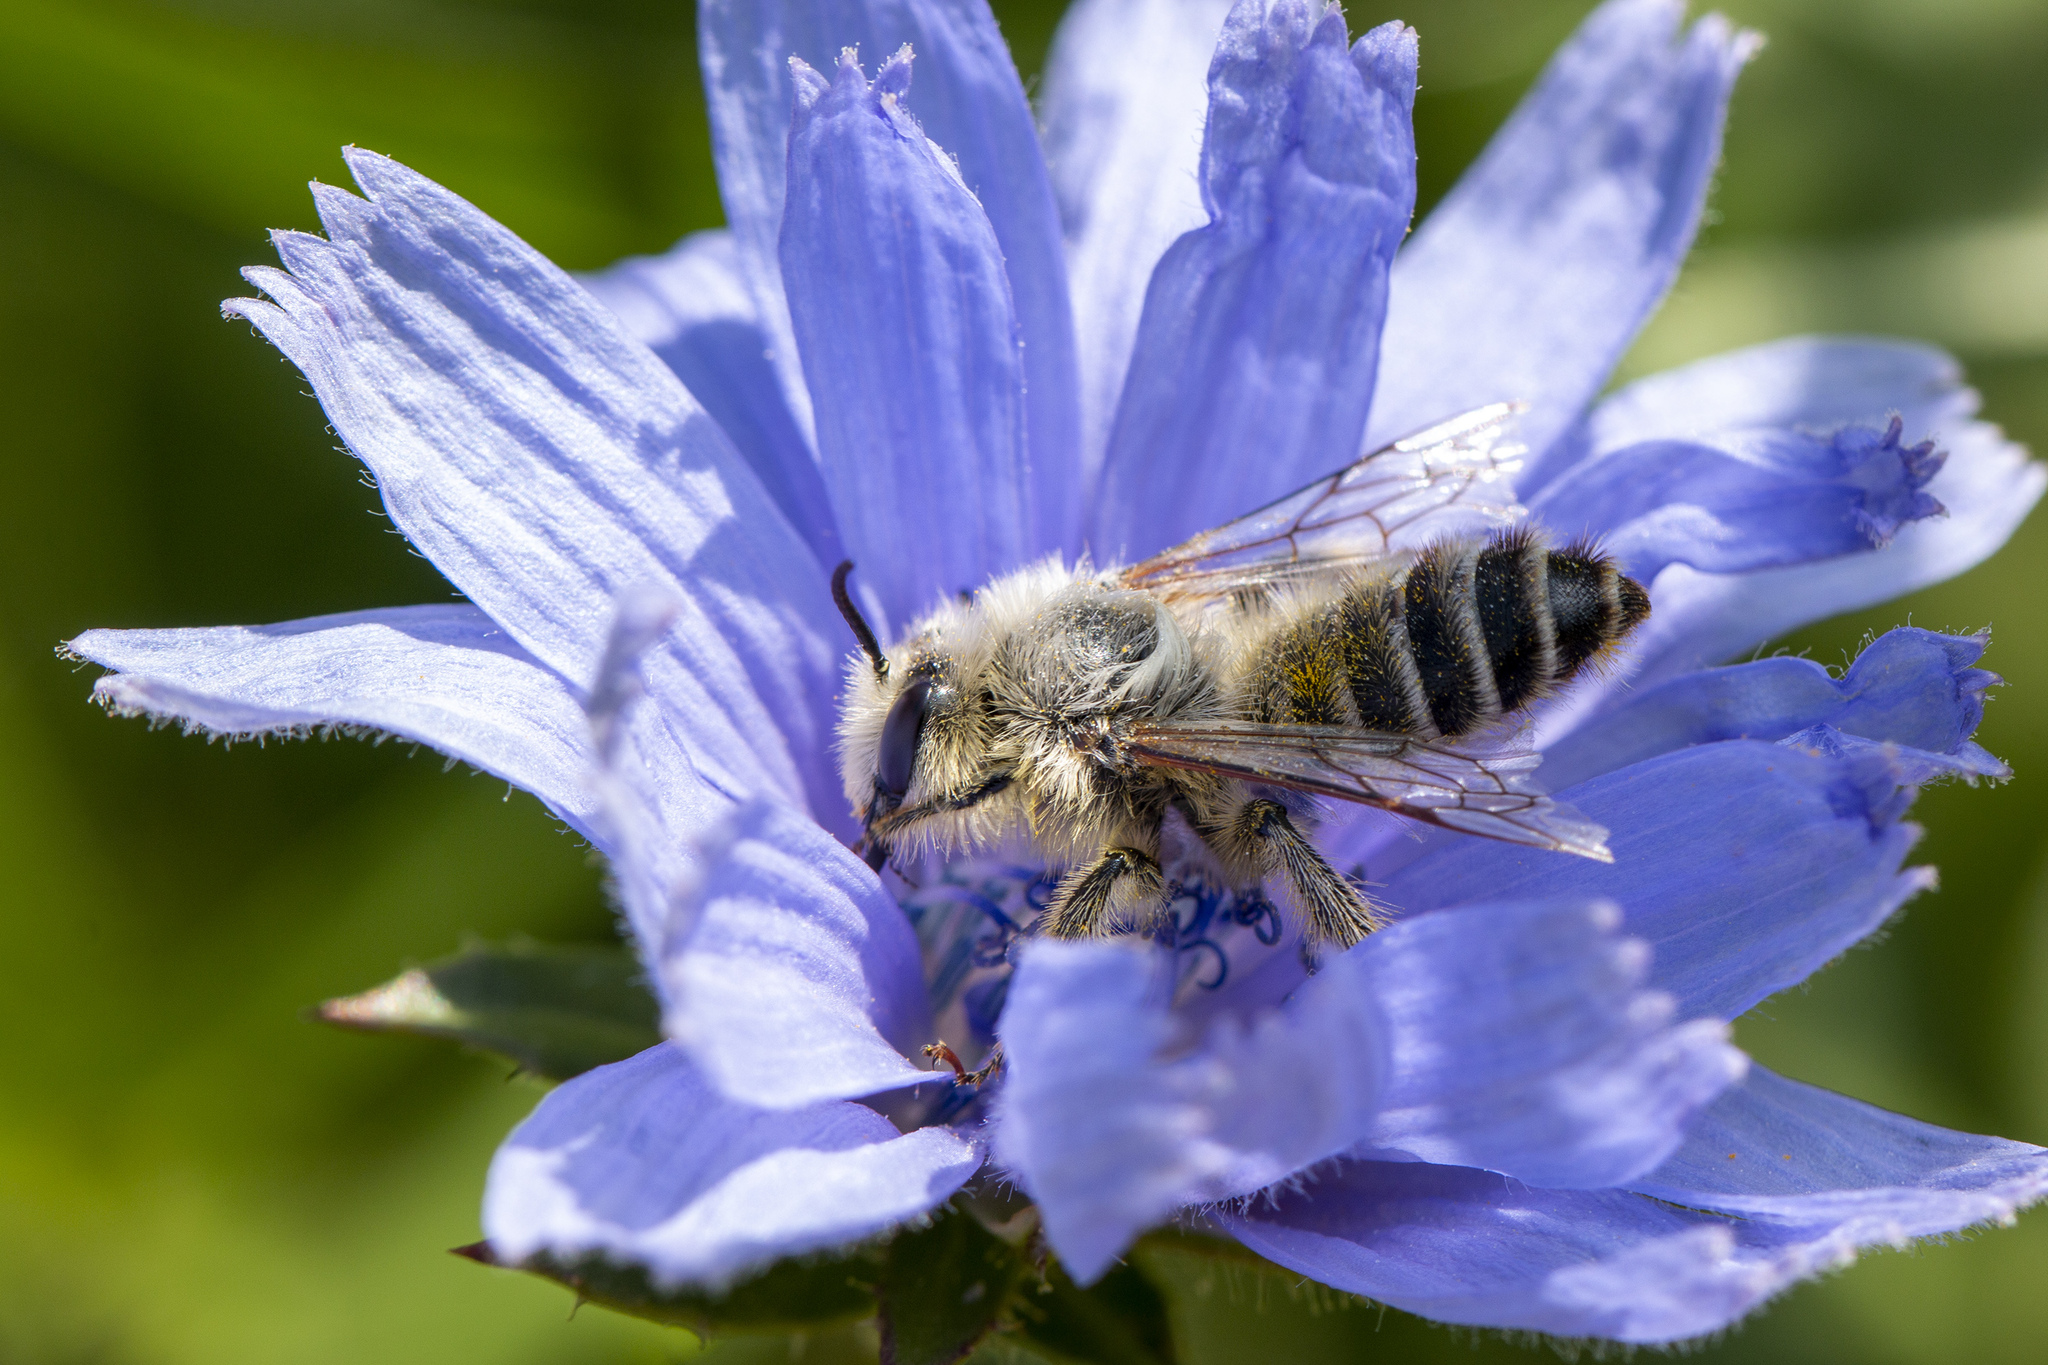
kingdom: Animalia
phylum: Arthropoda
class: Insecta
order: Hymenoptera
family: Melittidae
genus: Dasypoda
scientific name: Dasypoda hirtipes
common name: Pantaloon bee
